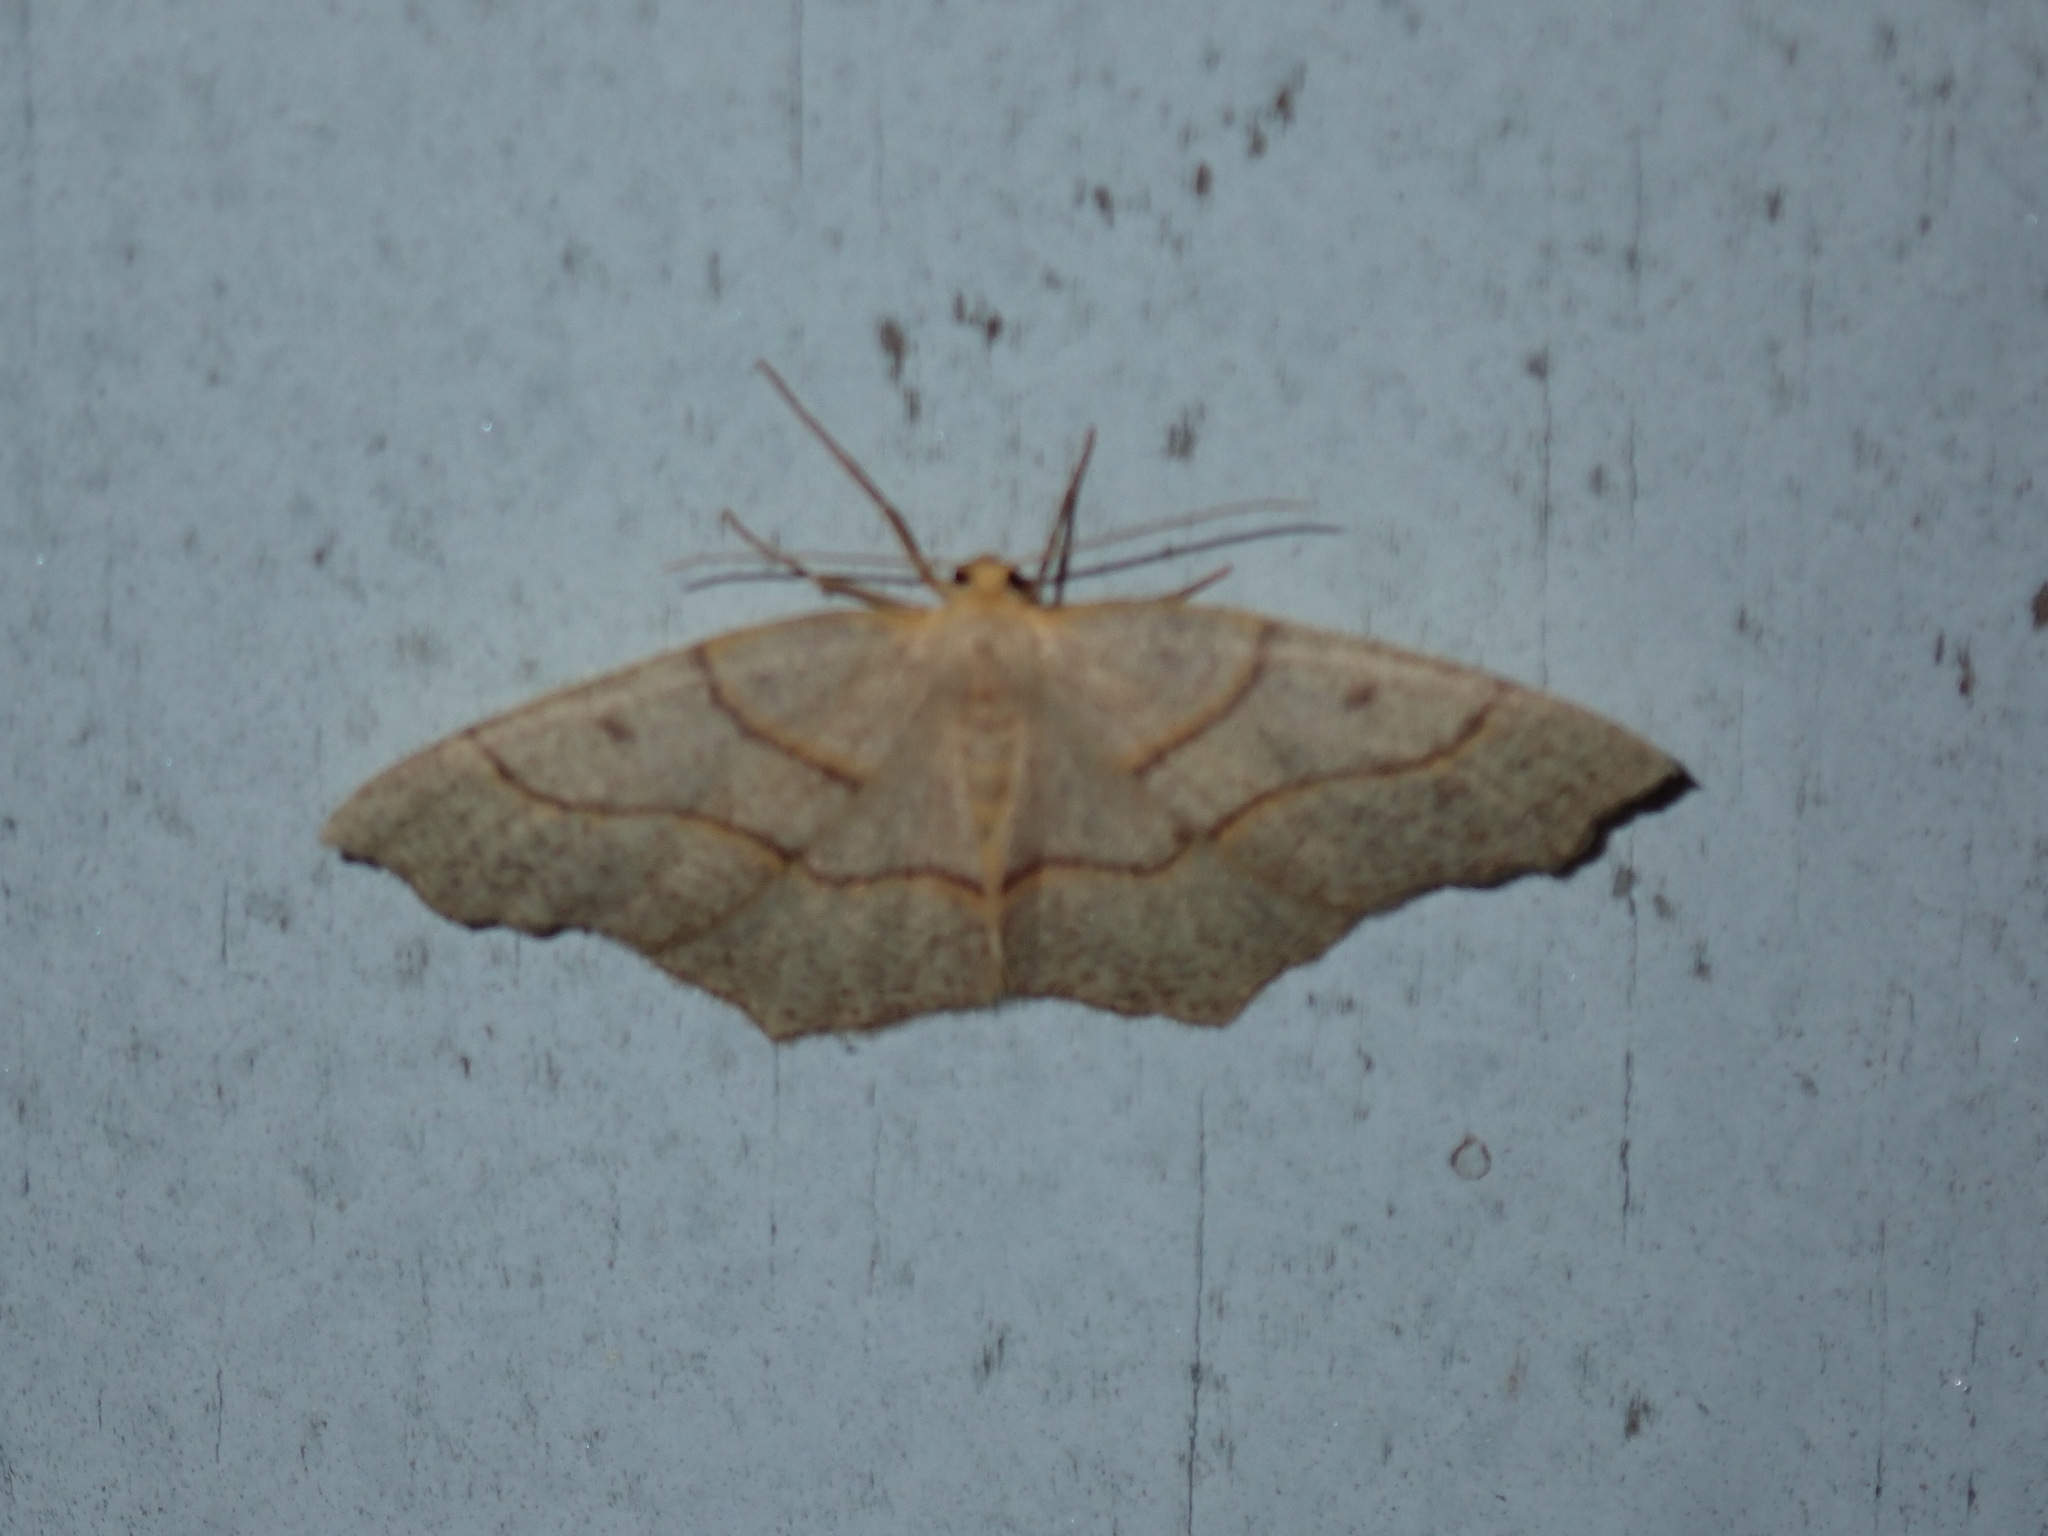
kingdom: Animalia
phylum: Arthropoda
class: Insecta
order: Lepidoptera
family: Geometridae
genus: Lambdina
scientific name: Lambdina fiscellaria
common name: Hemlock looper
